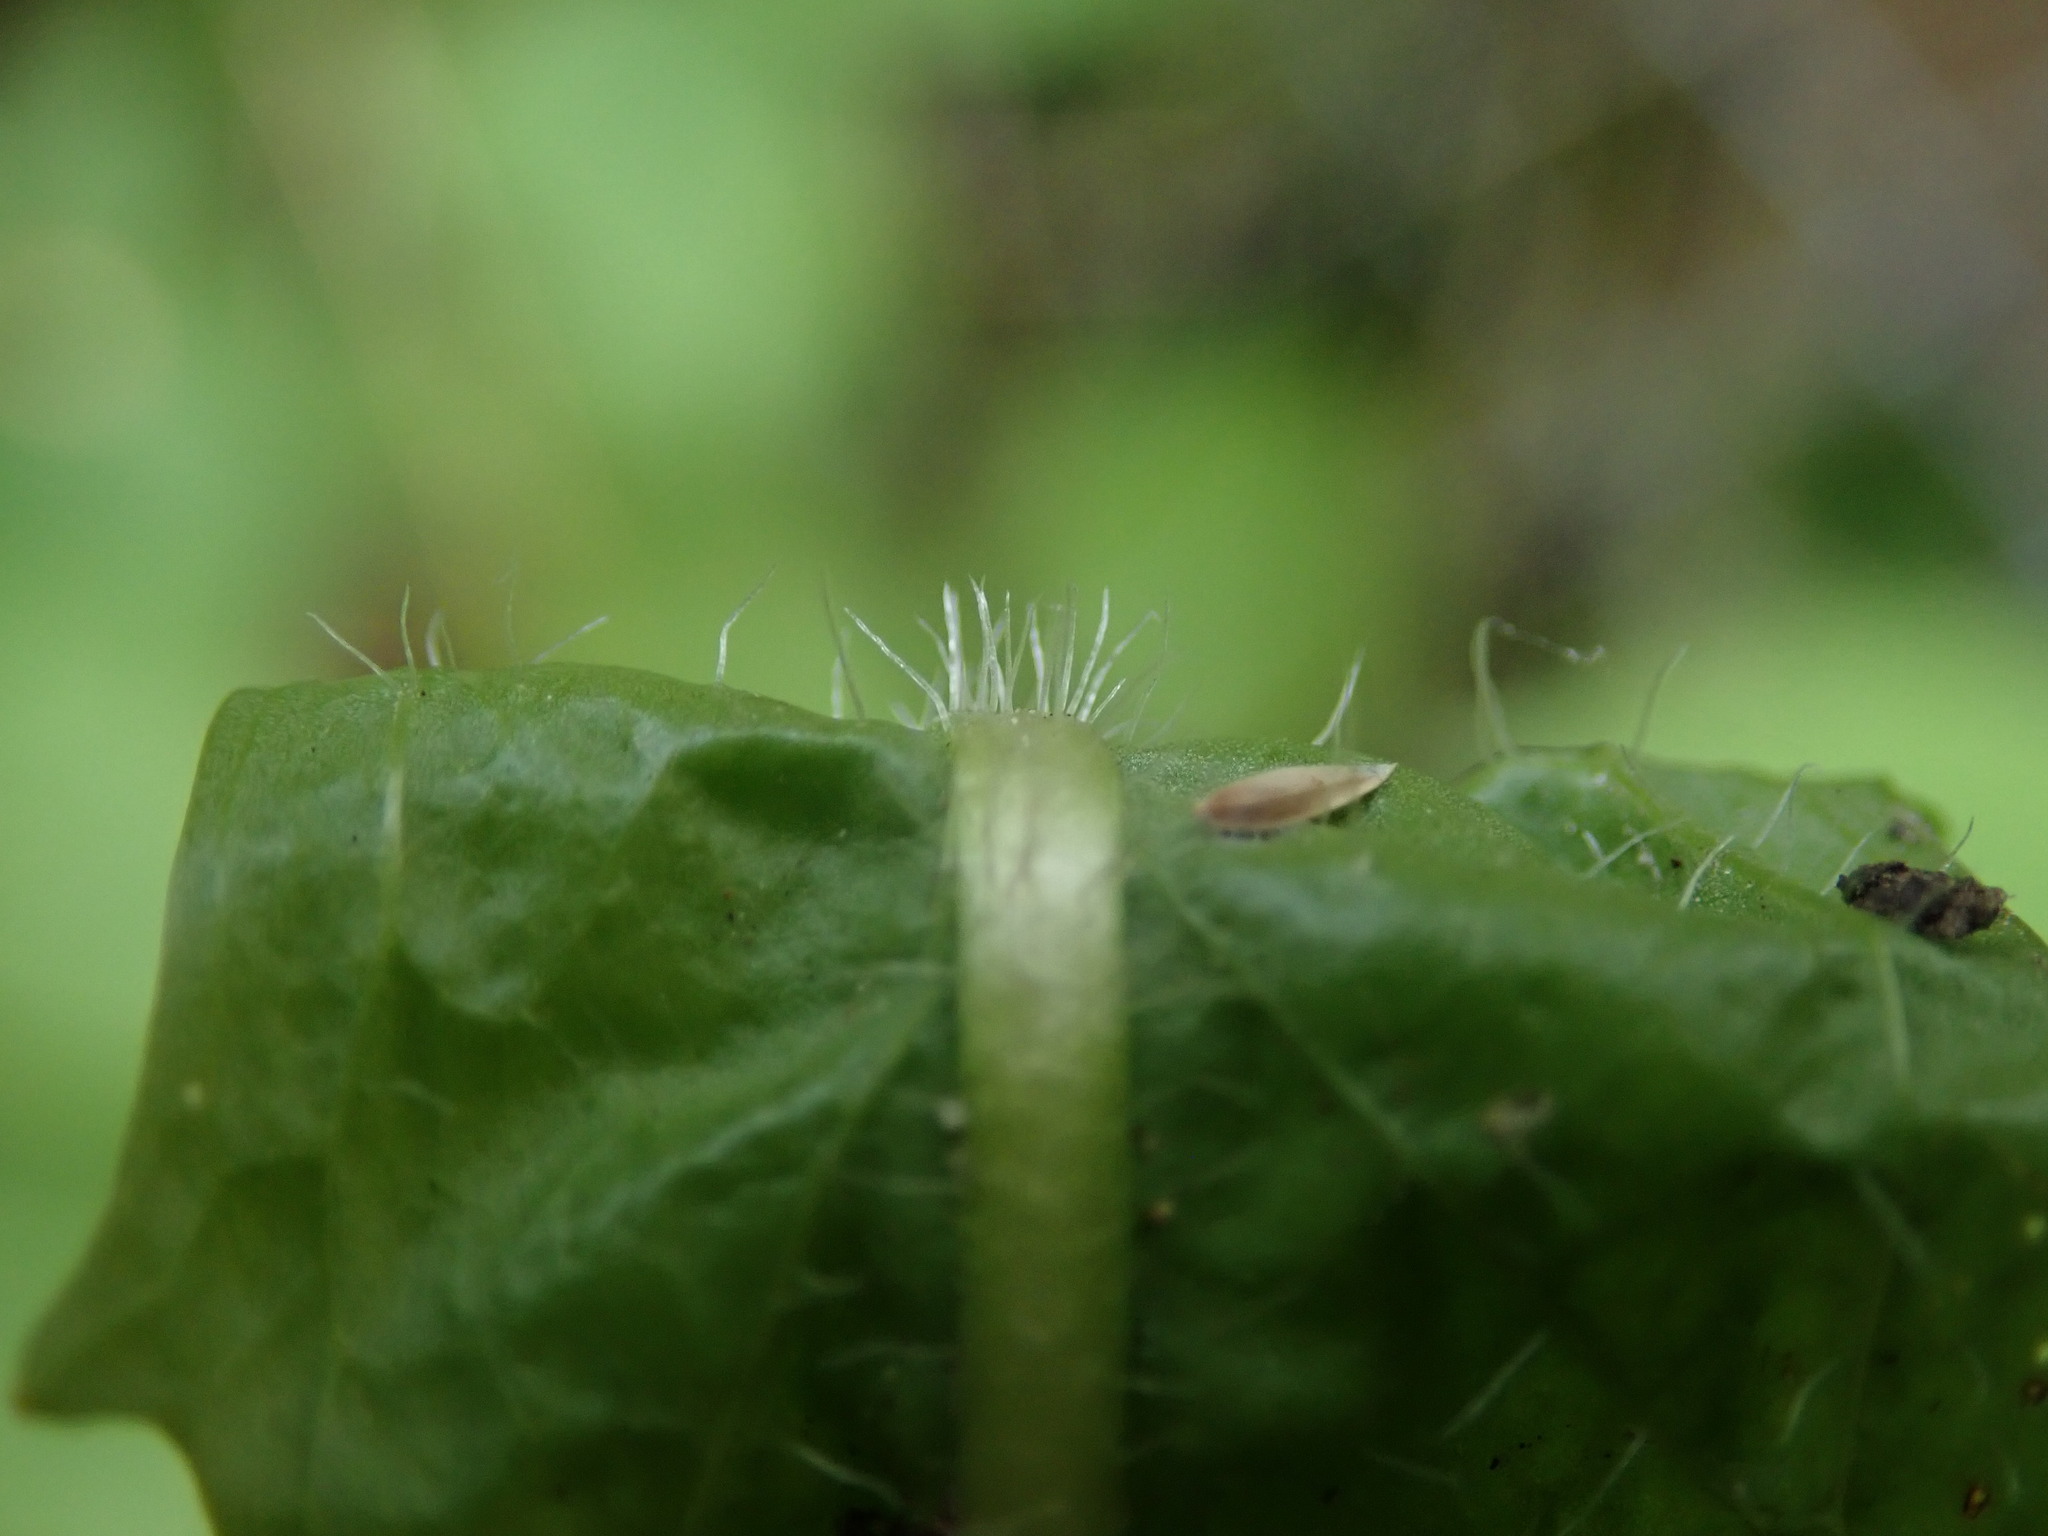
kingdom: Plantae
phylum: Tracheophyta
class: Magnoliopsida
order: Asterales
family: Asteraceae
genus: Scorzoneroides
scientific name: Scorzoneroides autumnalis
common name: Autumn hawkbit
